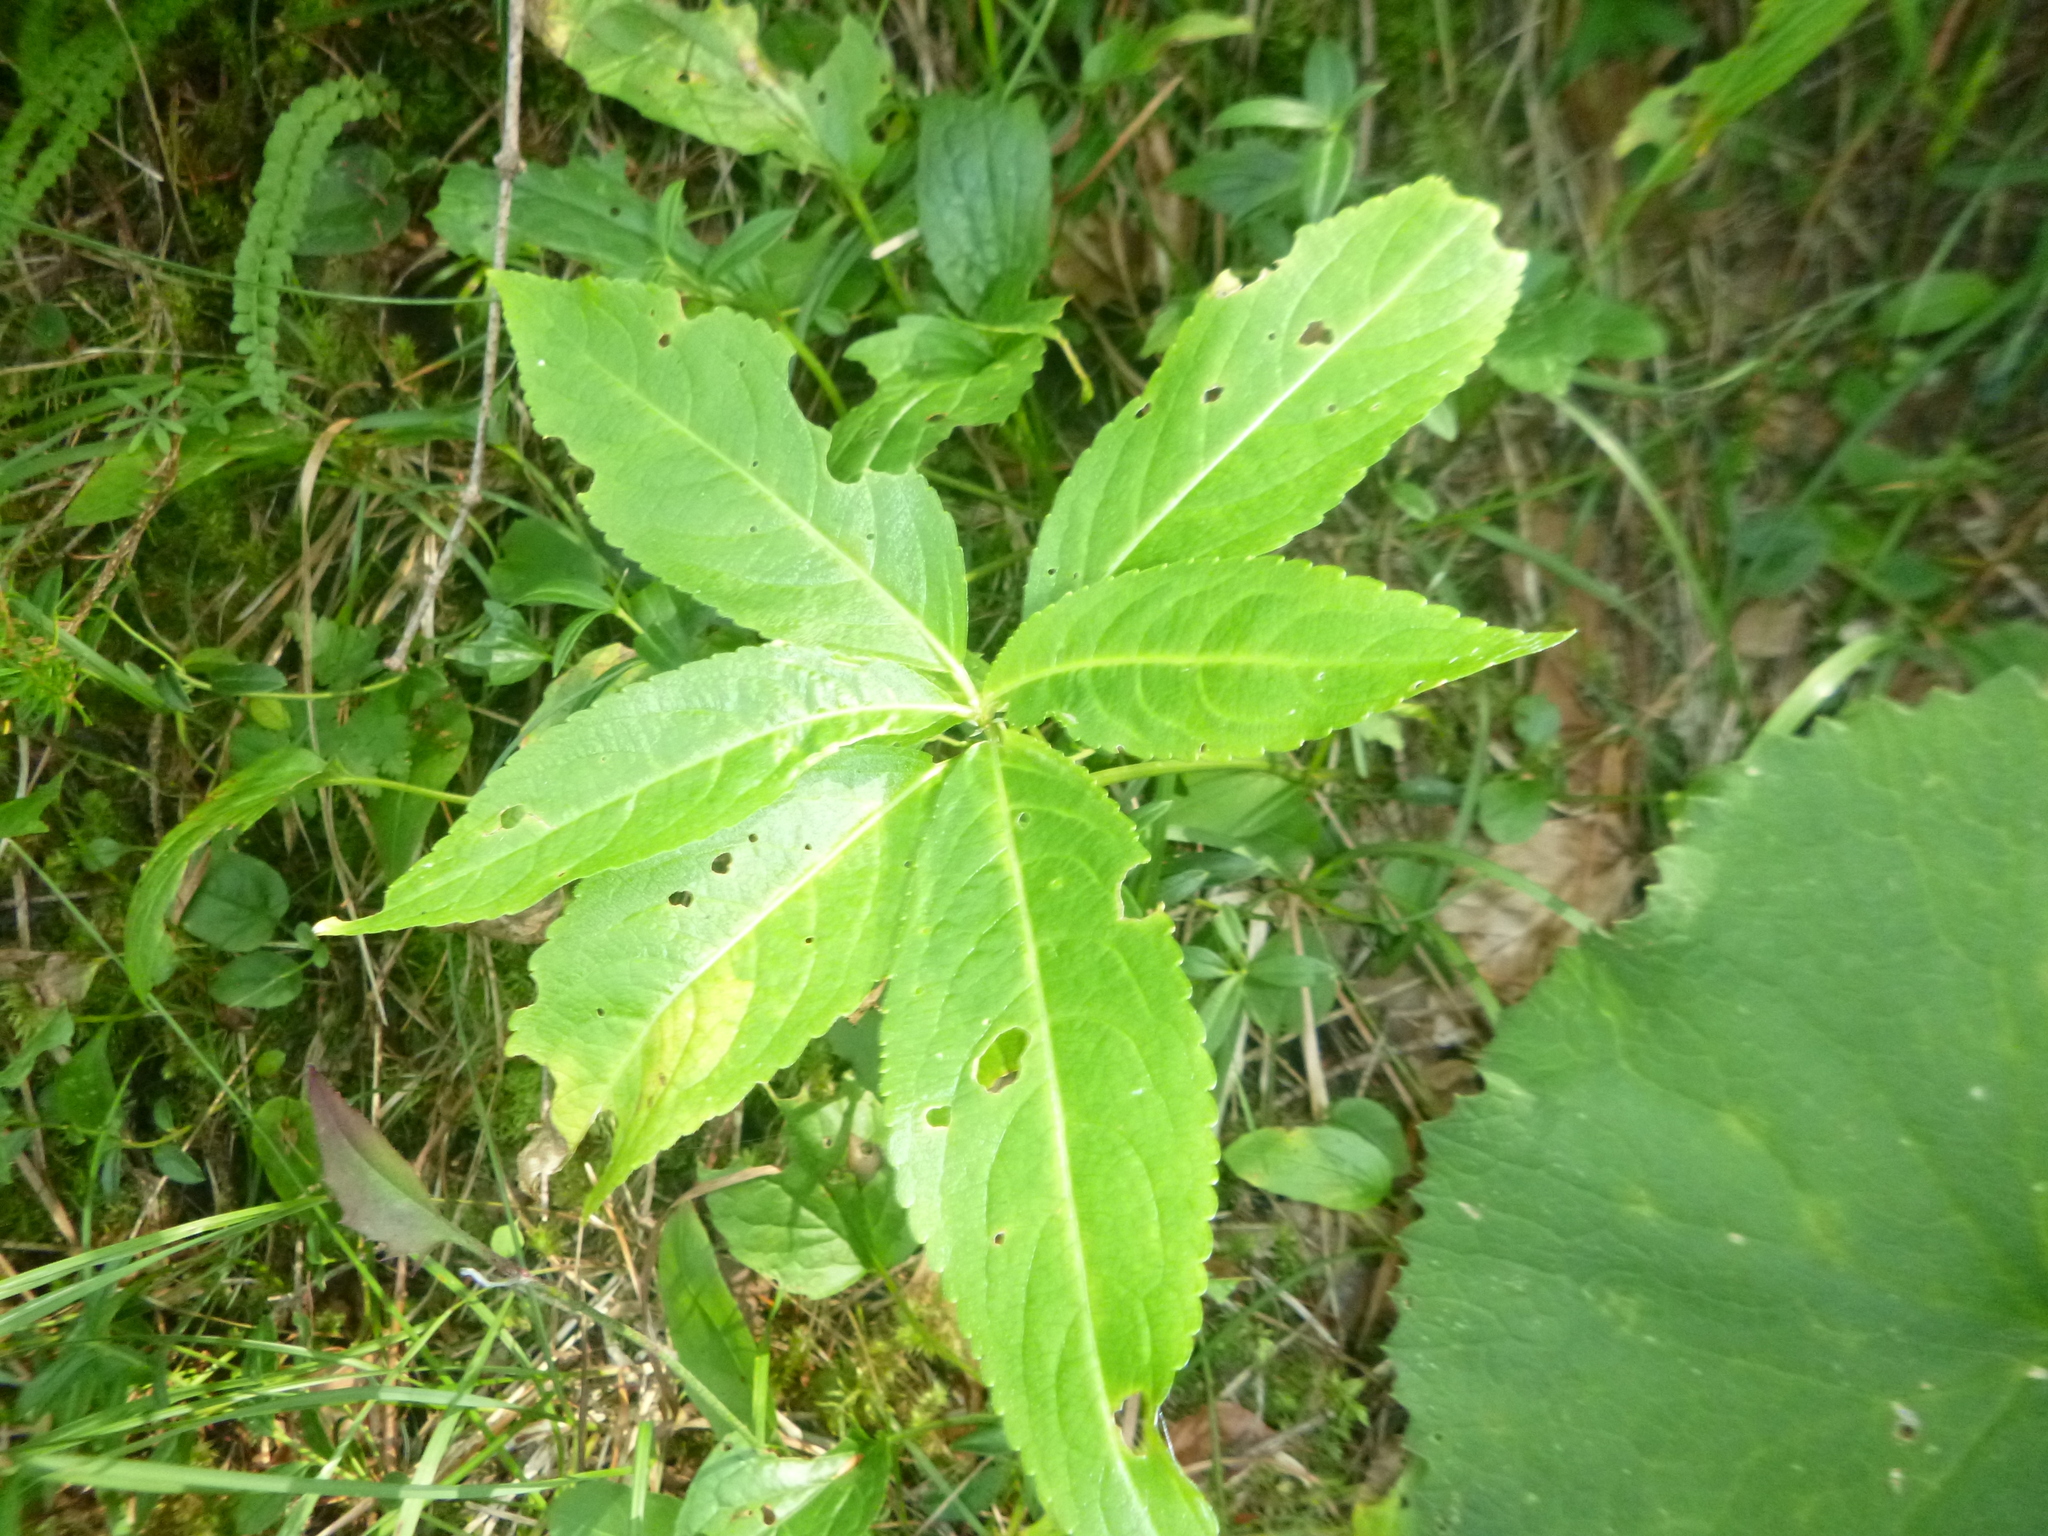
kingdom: Plantae
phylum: Tracheophyta
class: Magnoliopsida
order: Malpighiales
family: Euphorbiaceae
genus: Mercurialis
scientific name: Mercurialis perennis
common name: Dog mercury
